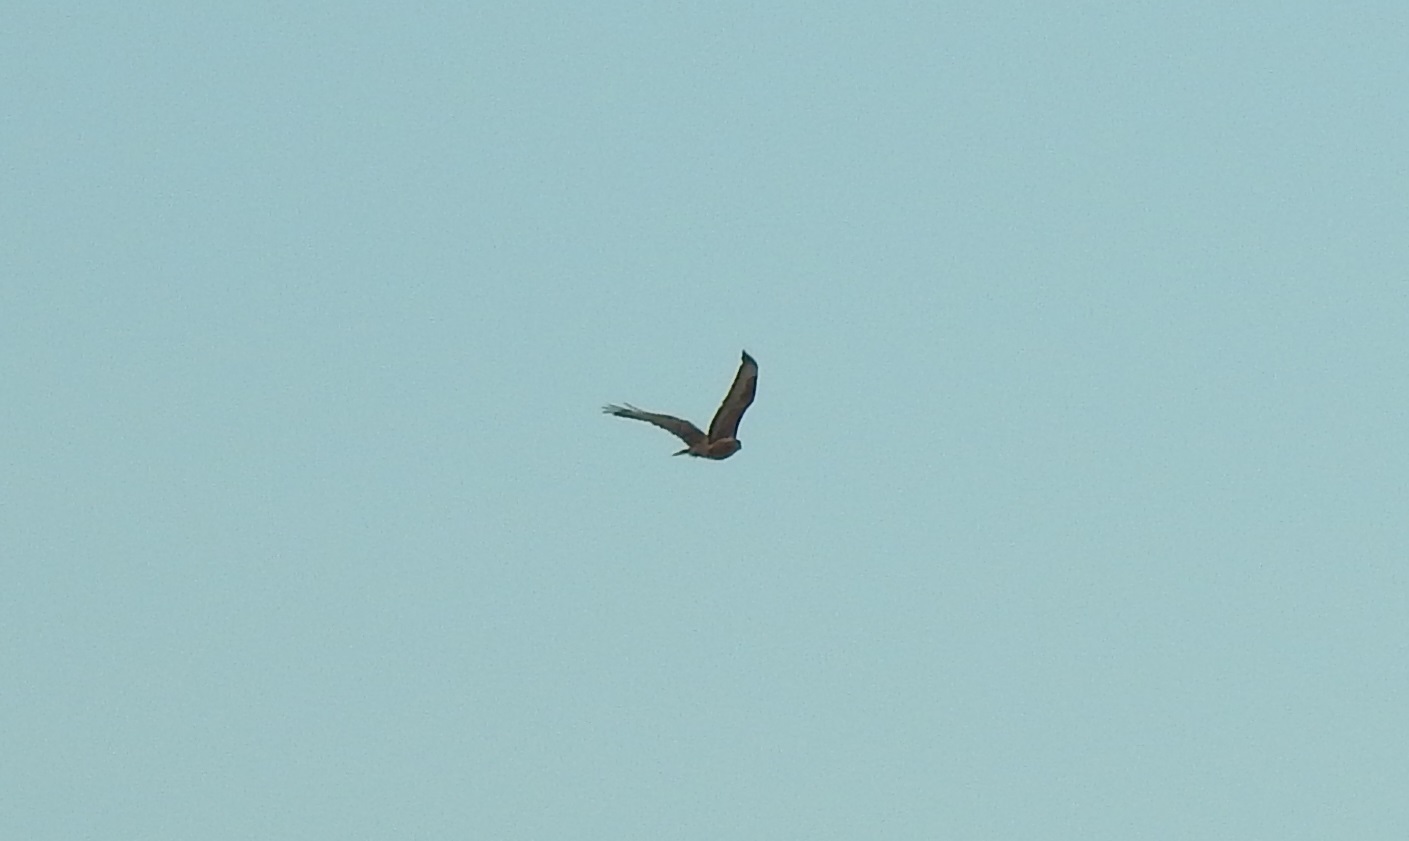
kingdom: Animalia
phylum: Chordata
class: Aves
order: Accipitriformes
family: Accipitridae
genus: Buteo
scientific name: Buteo rufinus
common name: Long-legged buzzard
